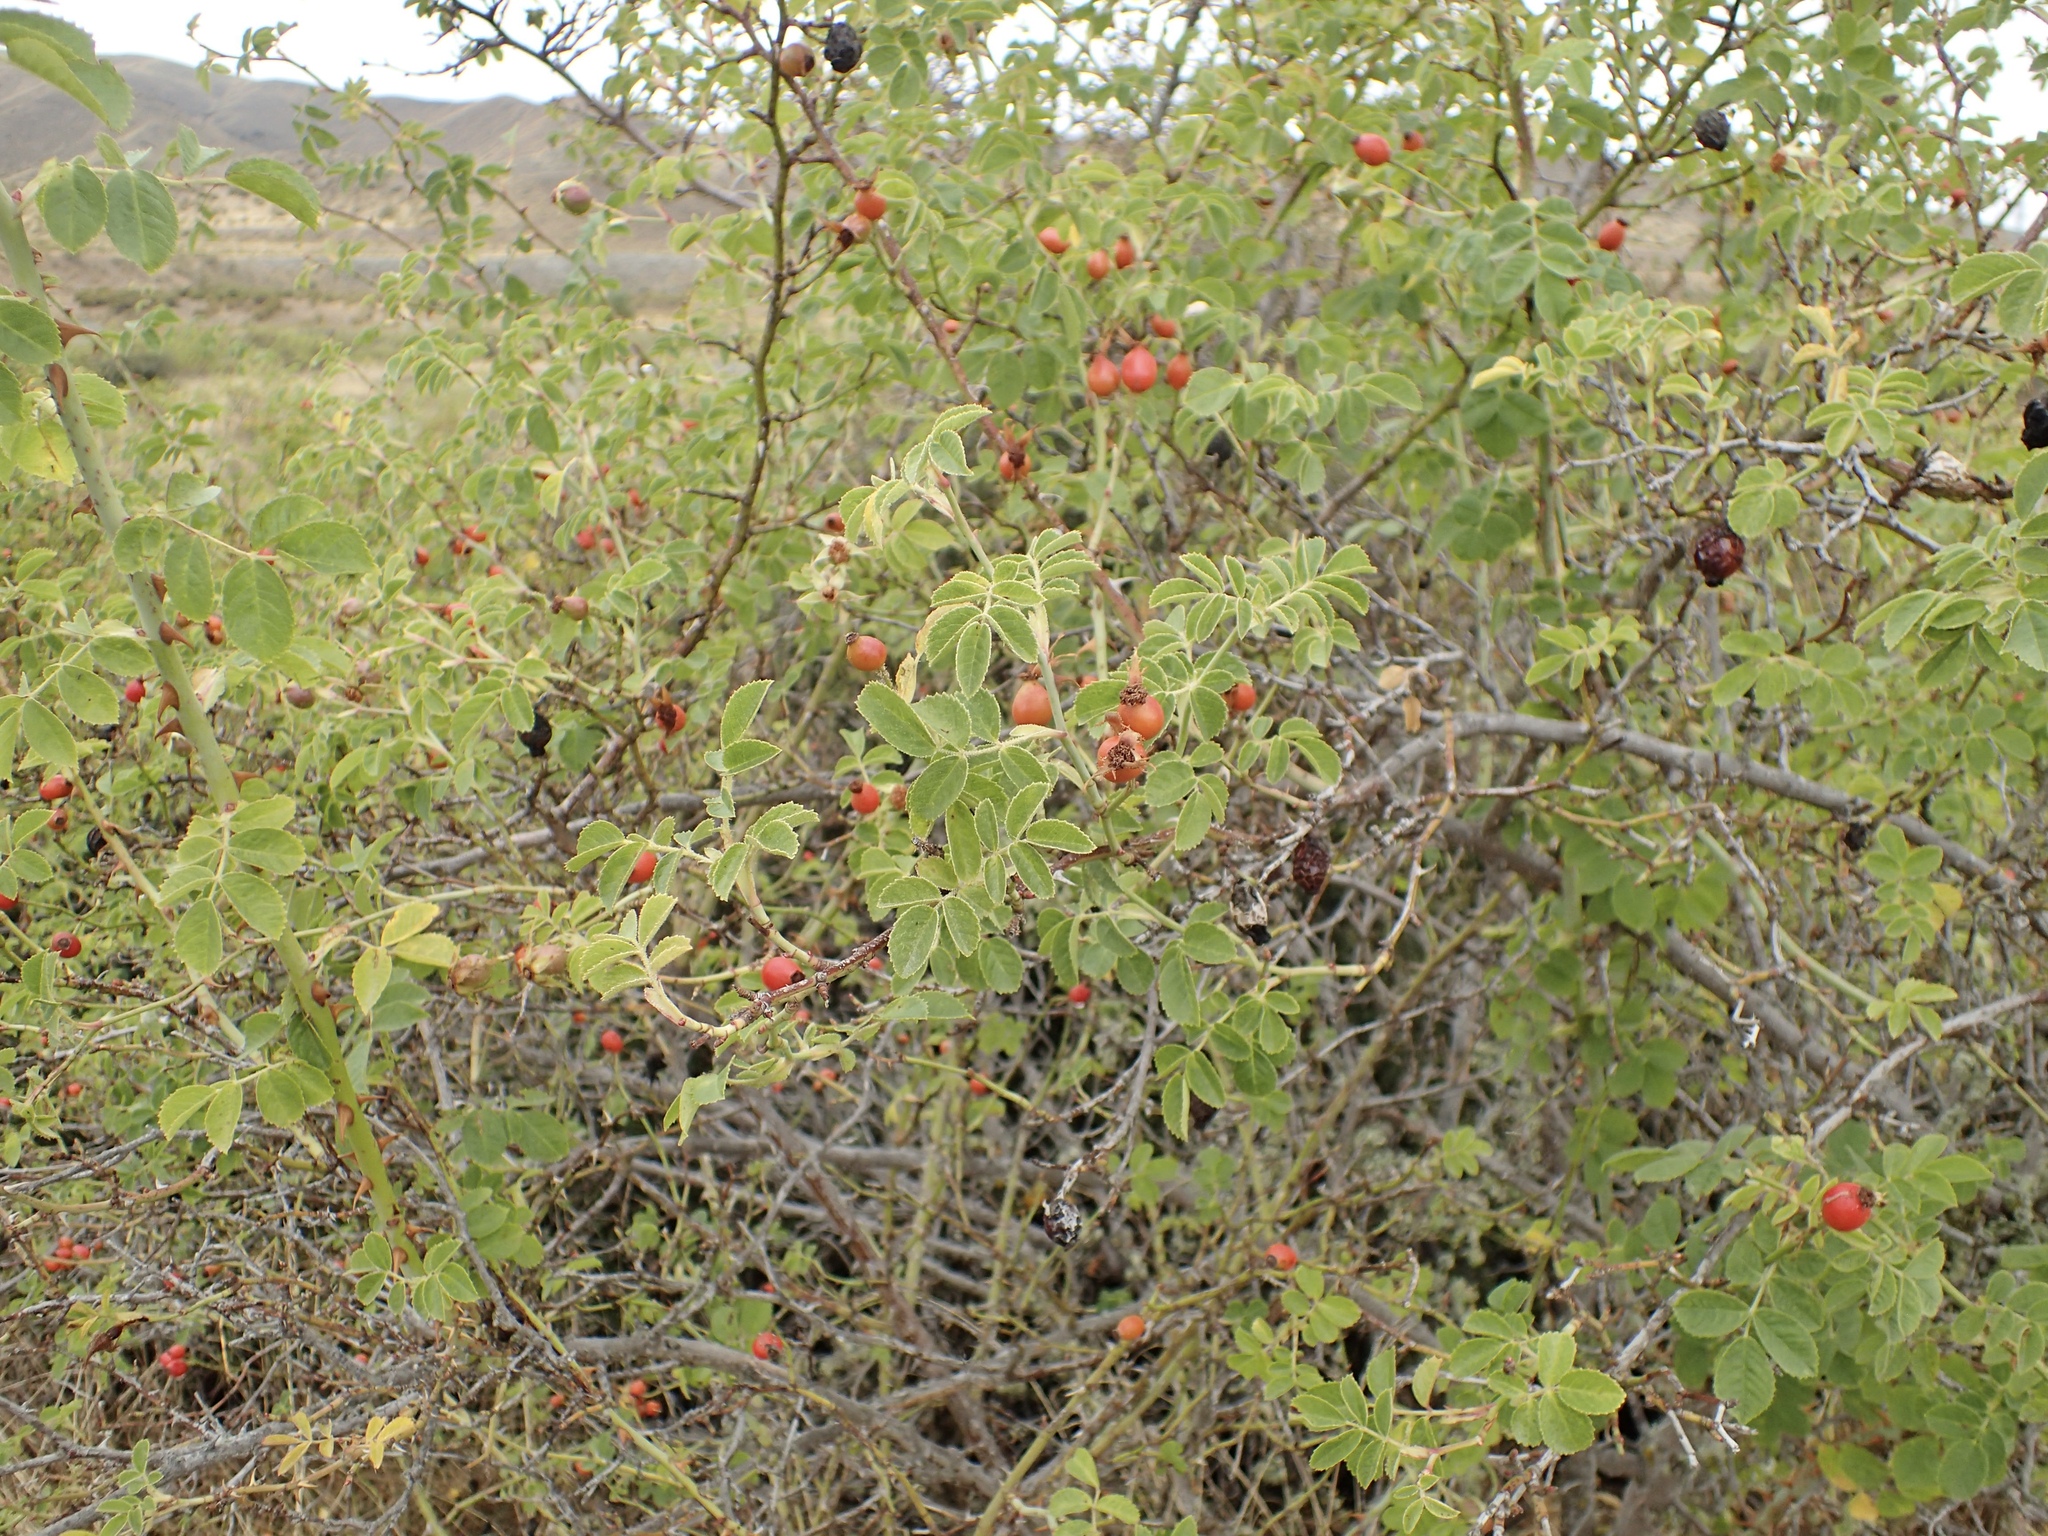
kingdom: Plantae
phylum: Tracheophyta
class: Magnoliopsida
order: Rosales
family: Rosaceae
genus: Rosa
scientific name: Rosa rubiginosa
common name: Sweet-briar
